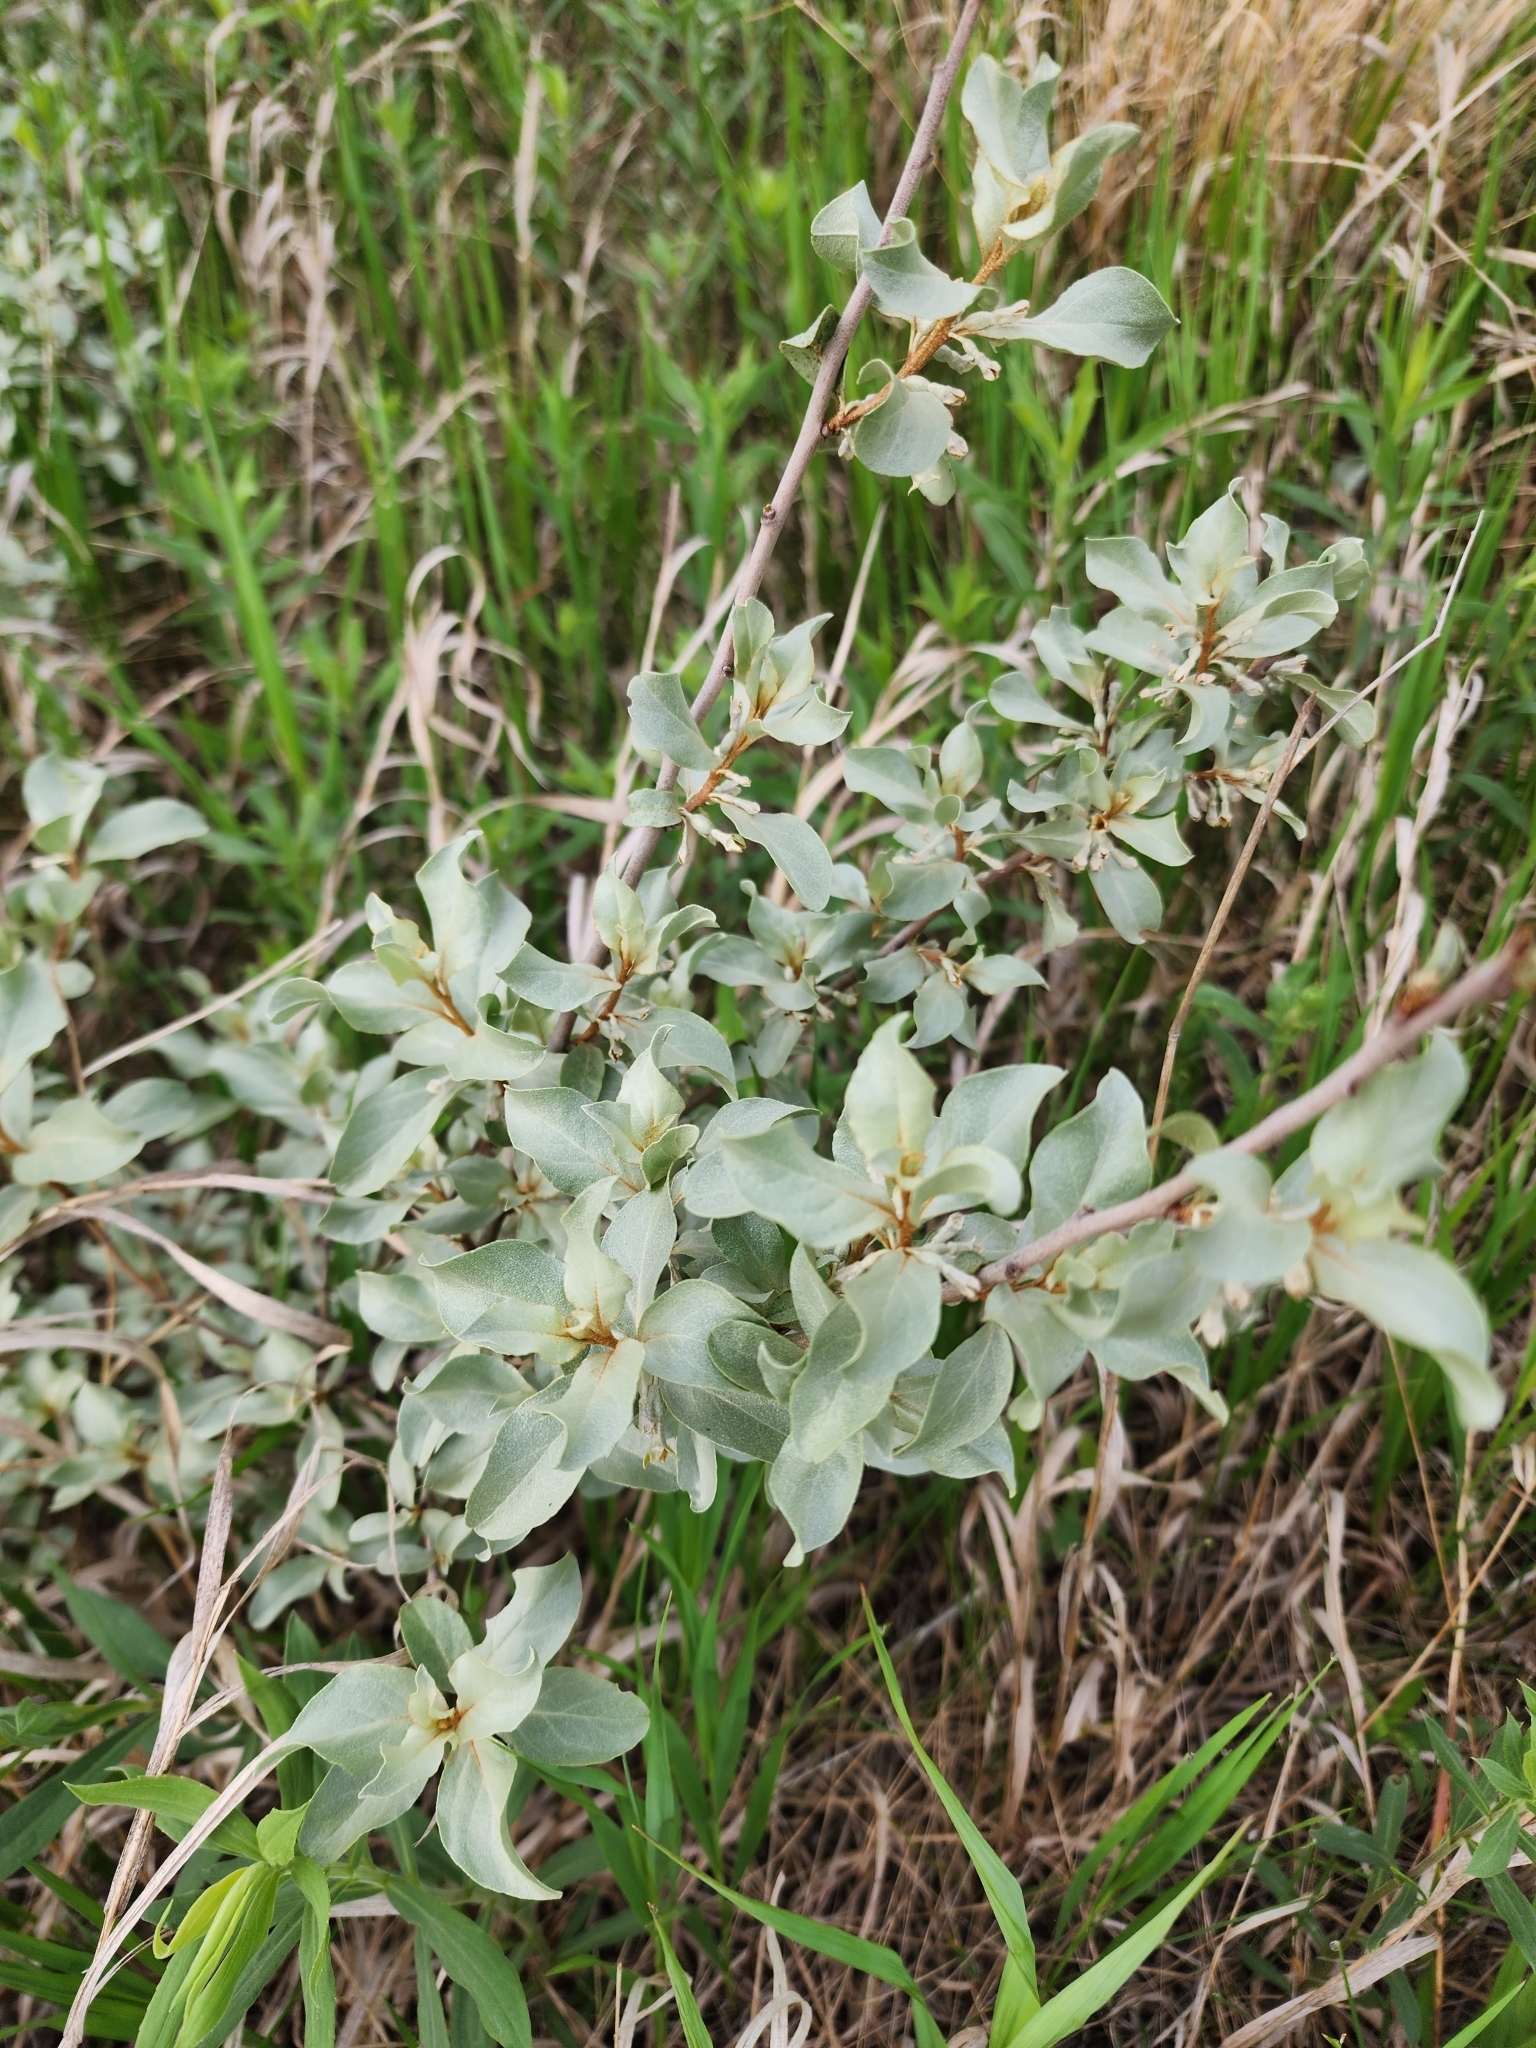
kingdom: Plantae
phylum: Tracheophyta
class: Magnoliopsida
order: Rosales
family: Elaeagnaceae
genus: Elaeagnus
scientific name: Elaeagnus commutata
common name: Silverberry
